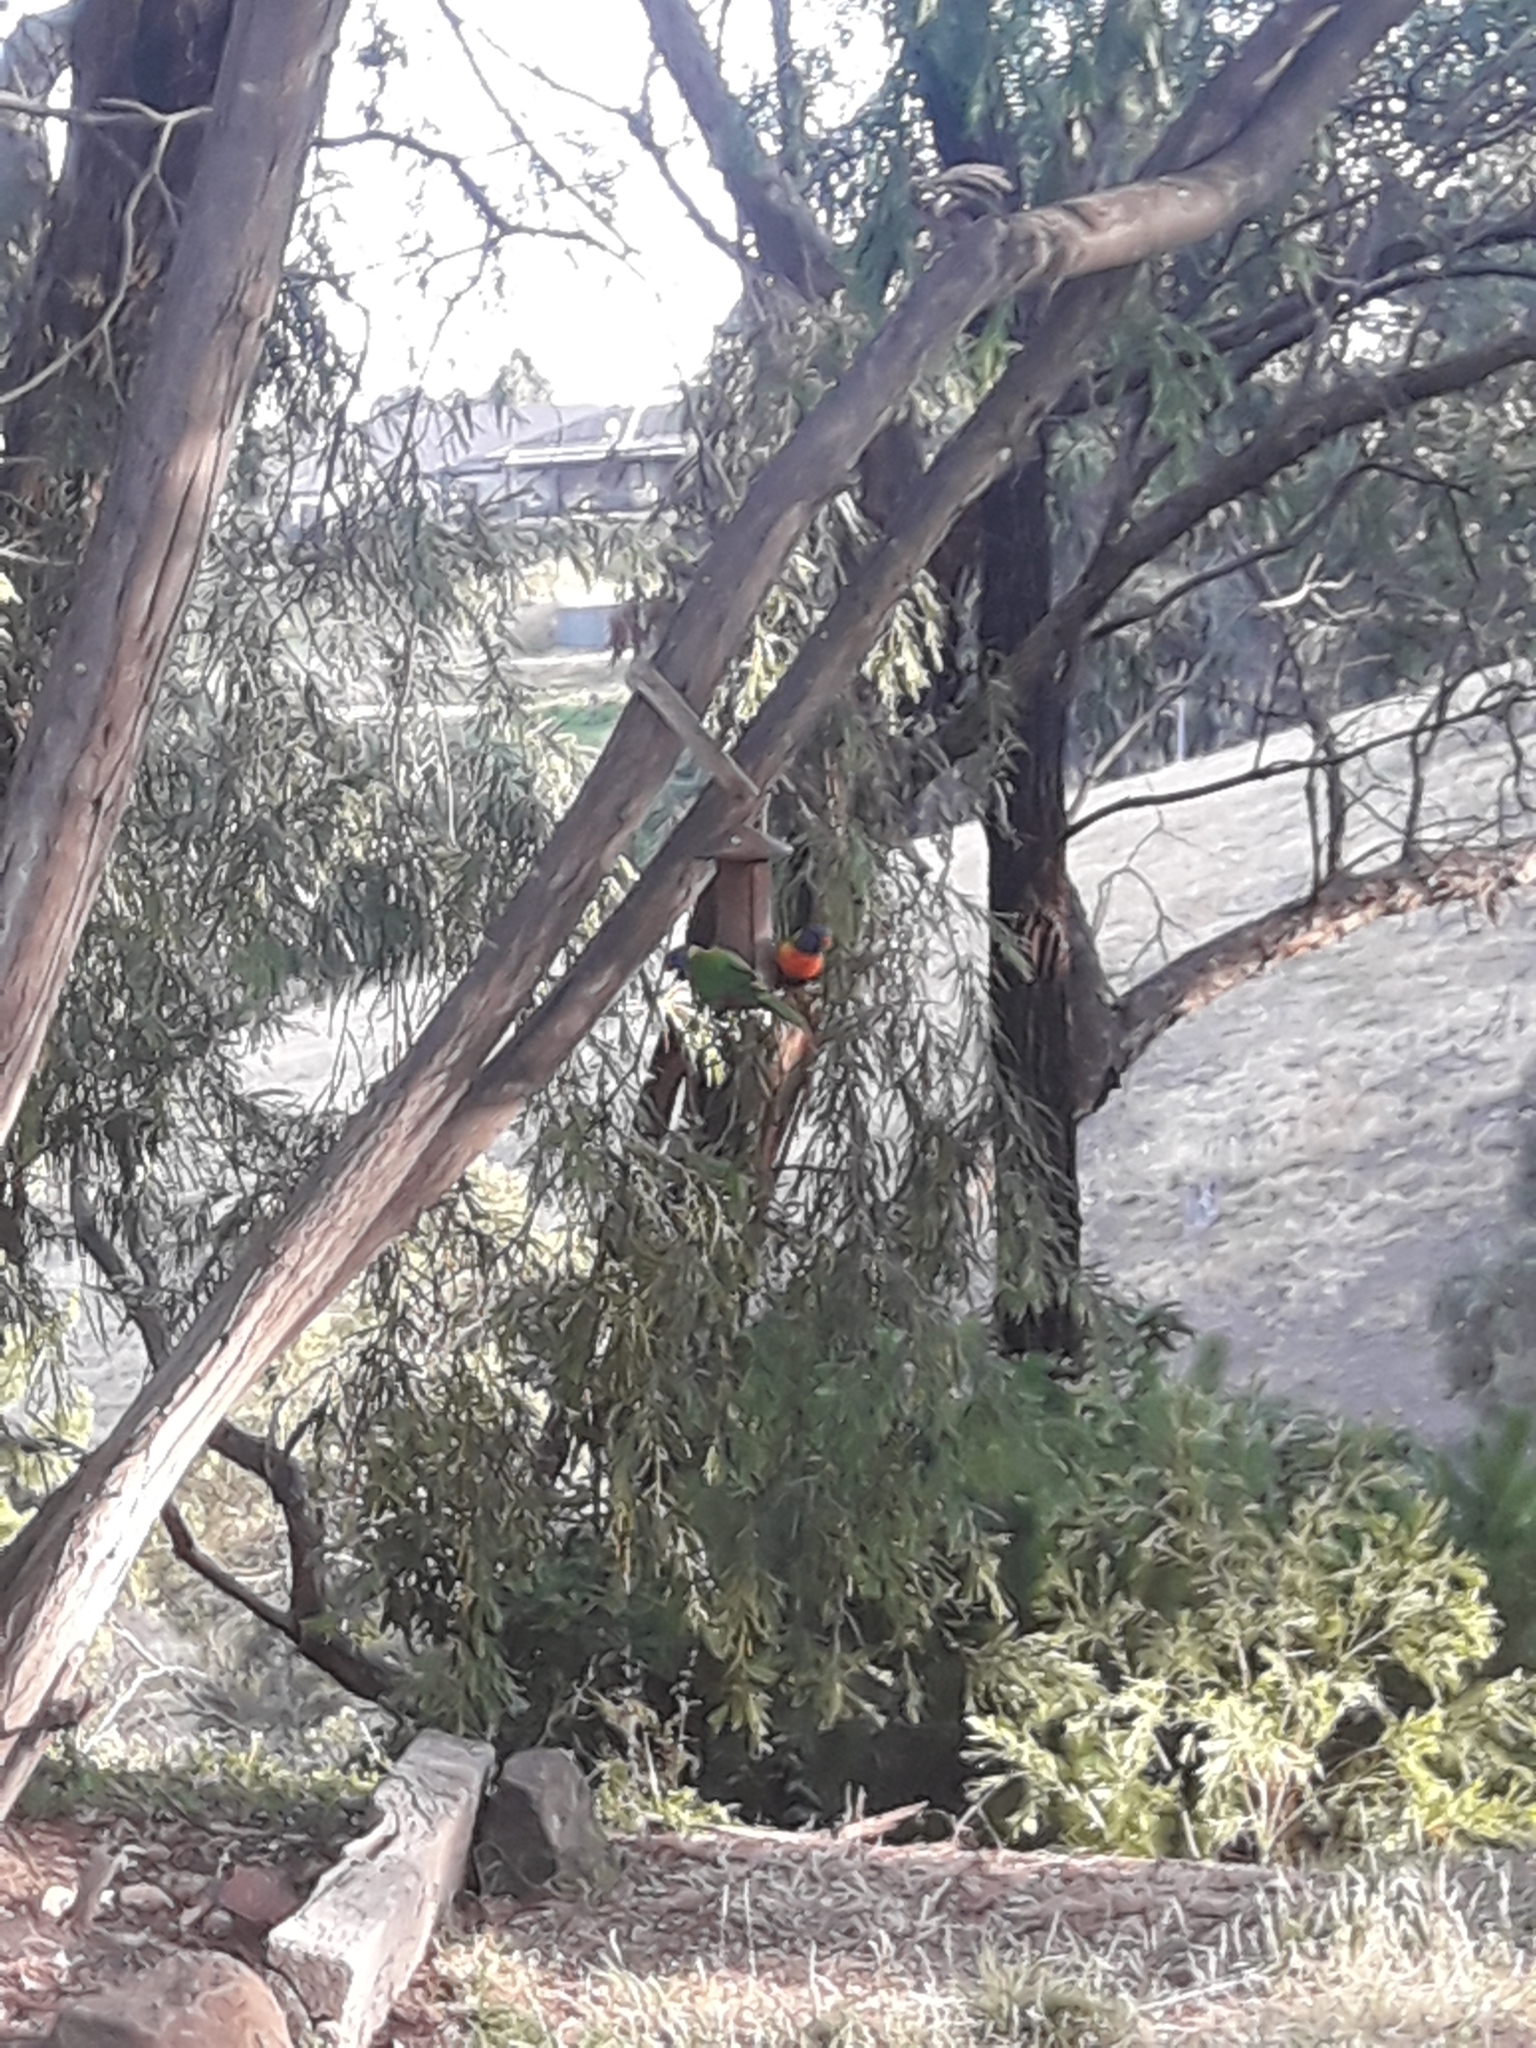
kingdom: Animalia
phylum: Chordata
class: Aves
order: Psittaciformes
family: Psittacidae
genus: Trichoglossus
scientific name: Trichoglossus haematodus
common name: Coconut lorikeet
